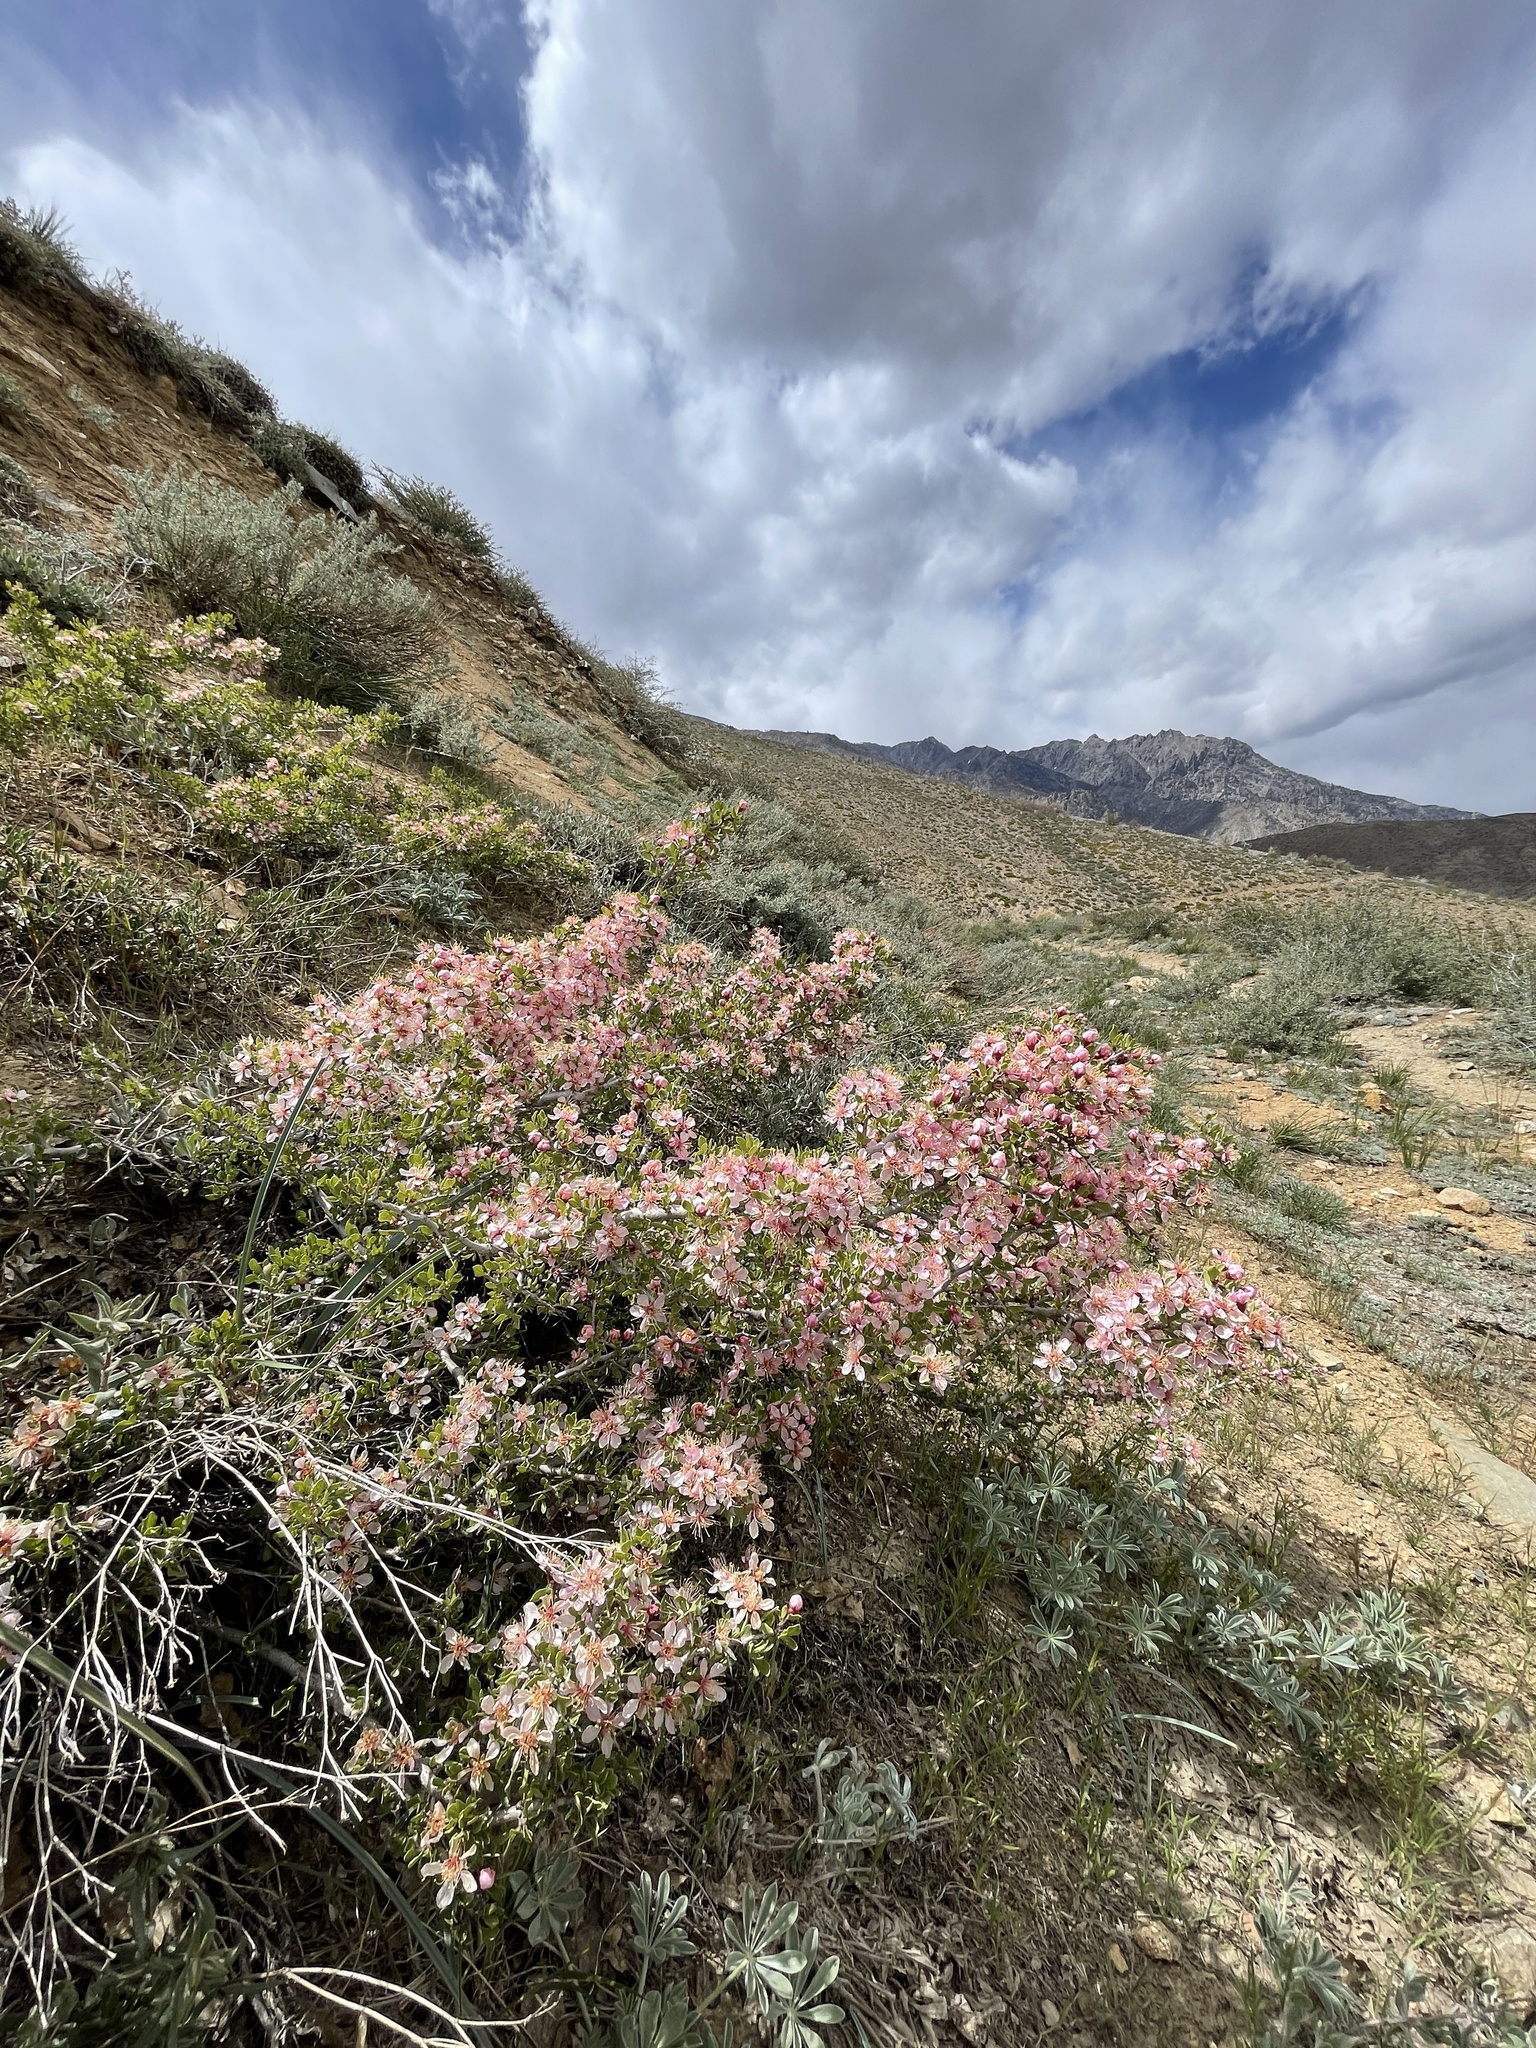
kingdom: Plantae
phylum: Tracheophyta
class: Magnoliopsida
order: Rosales
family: Rosaceae
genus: Prunus
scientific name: Prunus andersonii
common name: Desert peach
